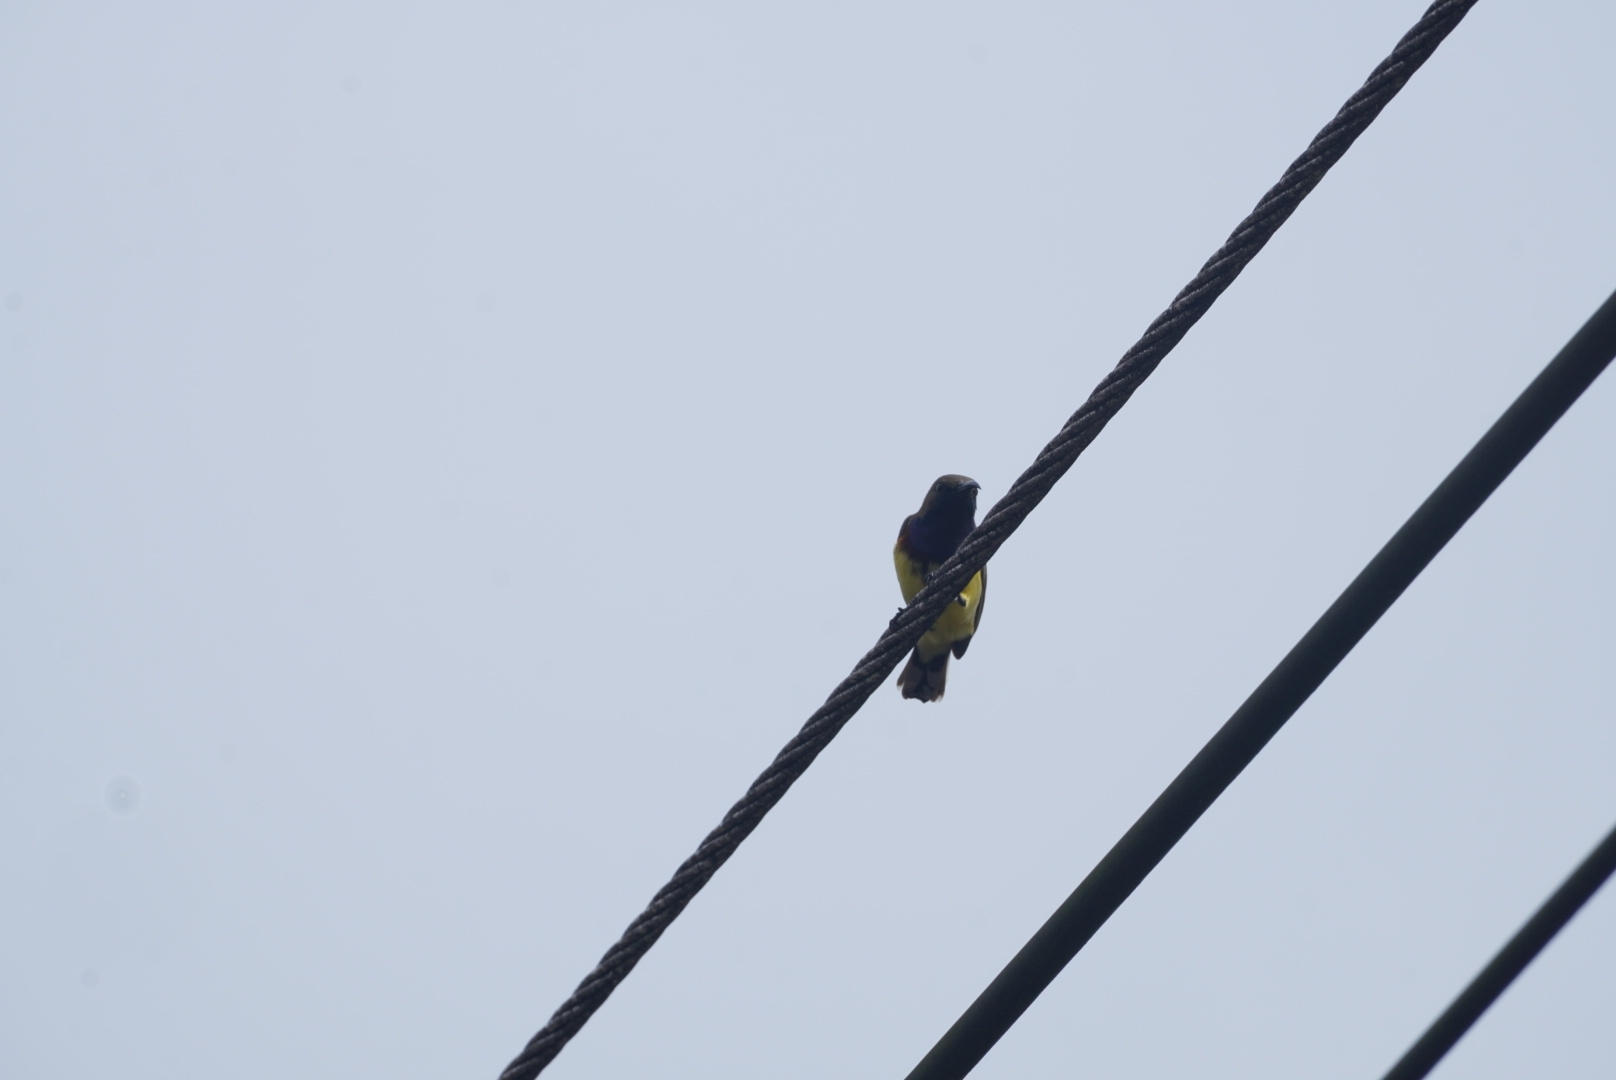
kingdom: Animalia
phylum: Chordata
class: Aves
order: Passeriformes
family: Nectariniidae
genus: Cinnyris
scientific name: Cinnyris
